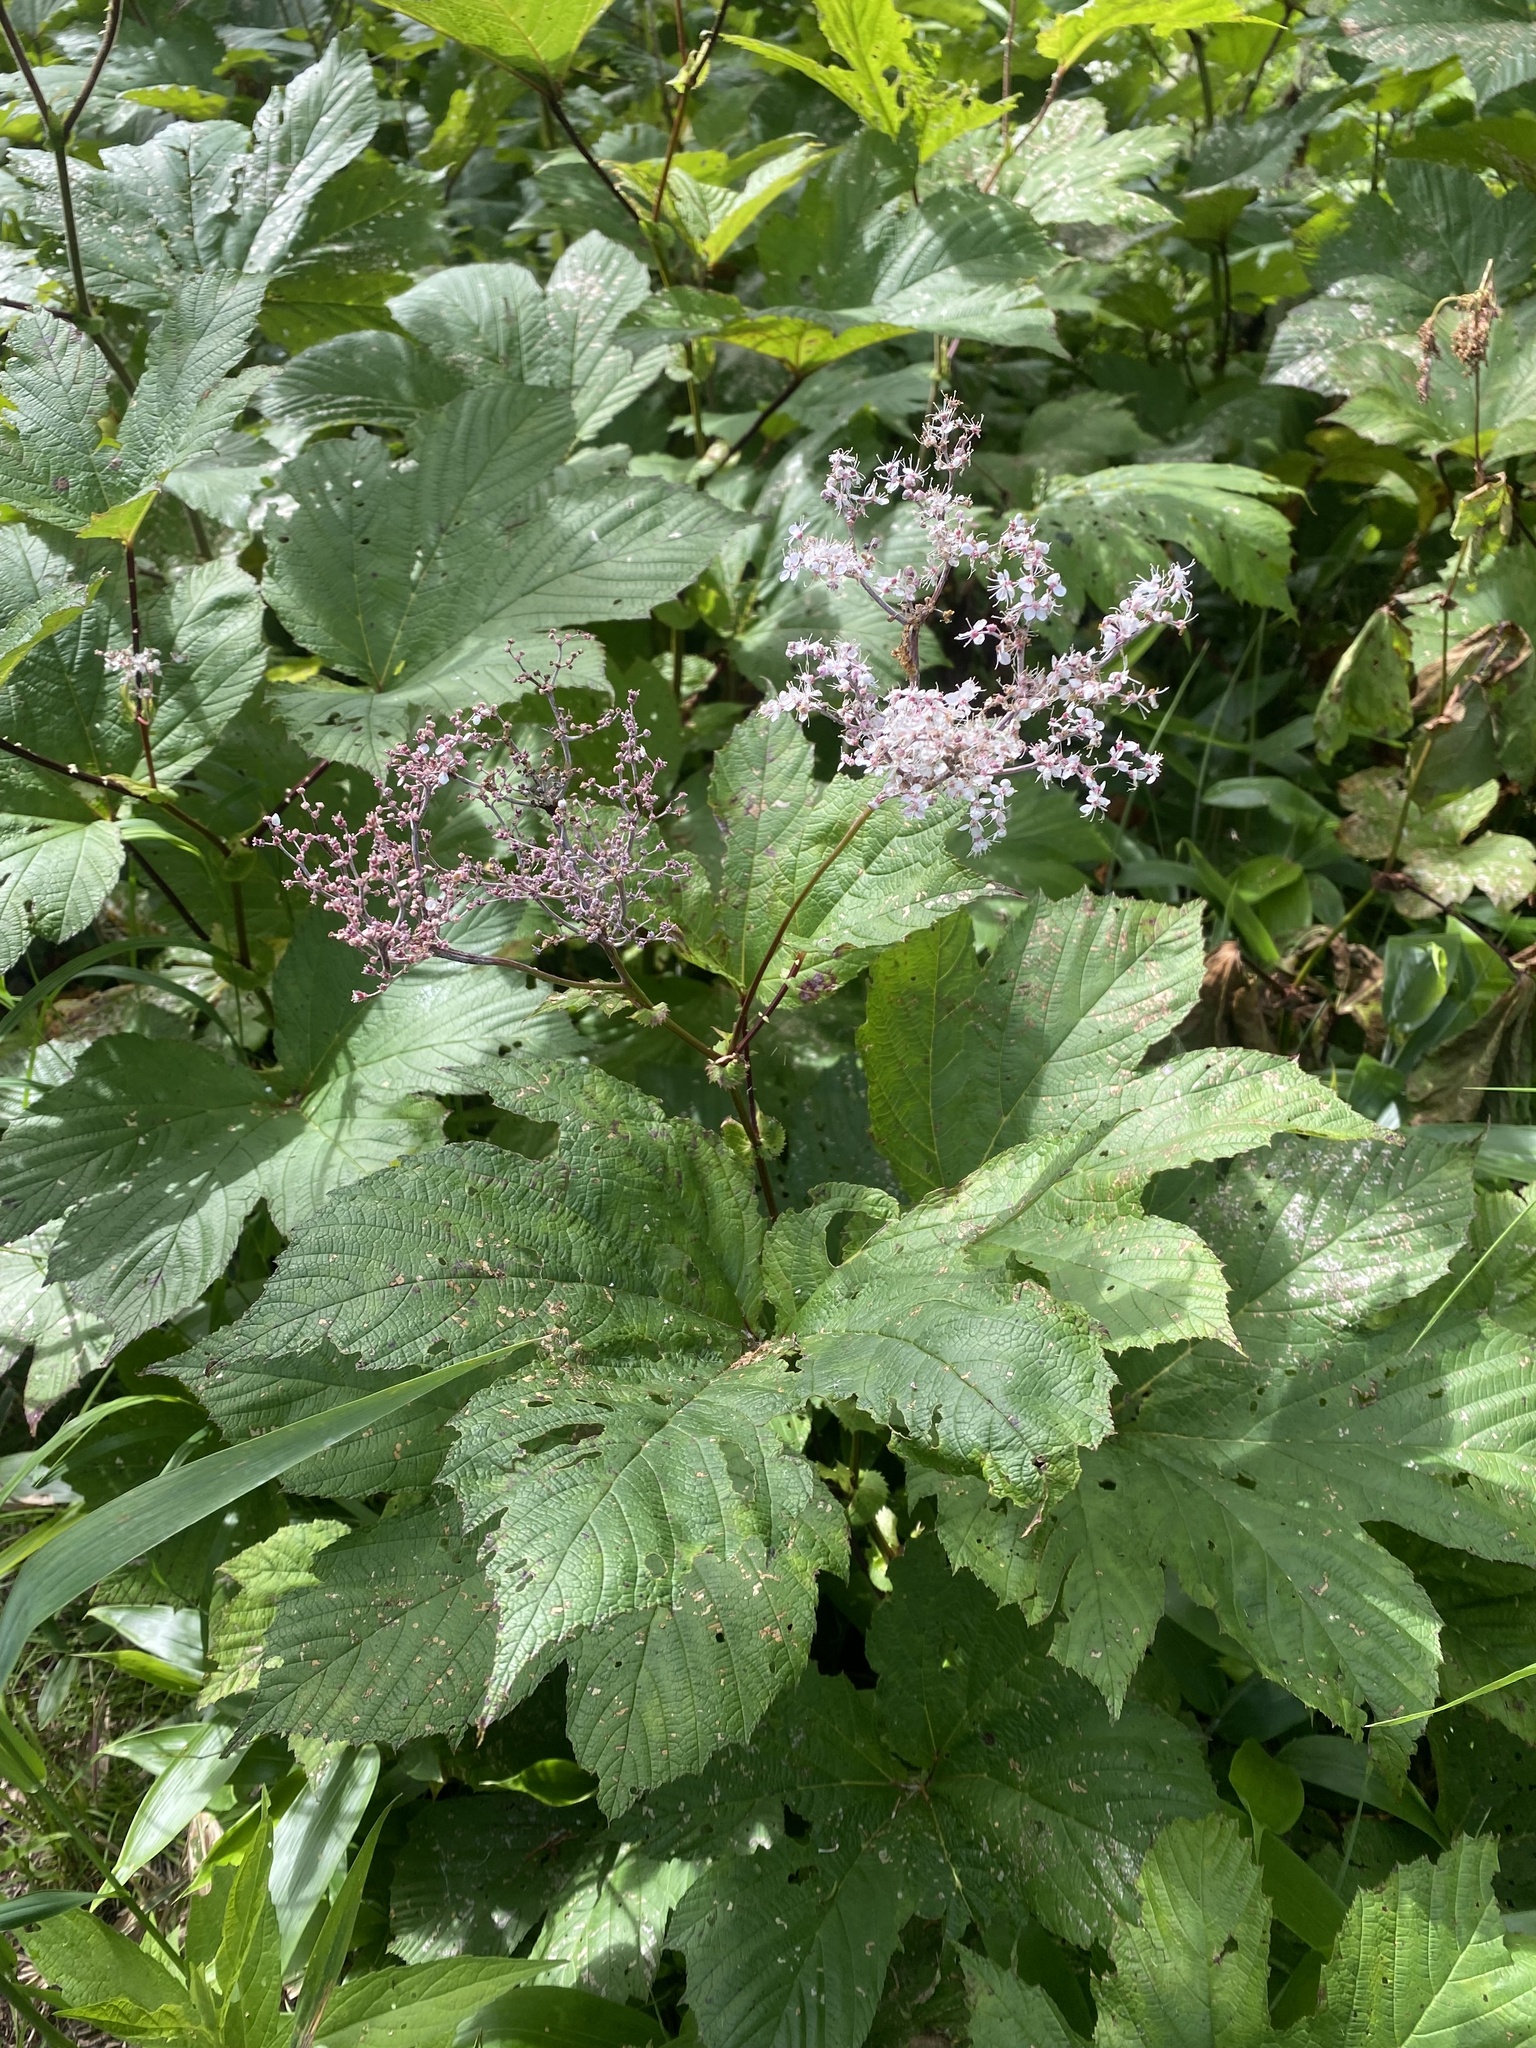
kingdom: Plantae
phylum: Tracheophyta
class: Magnoliopsida
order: Rosales
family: Rosaceae
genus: Filipendula
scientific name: Filipendula camtschatica
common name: Giant meadowsweet
